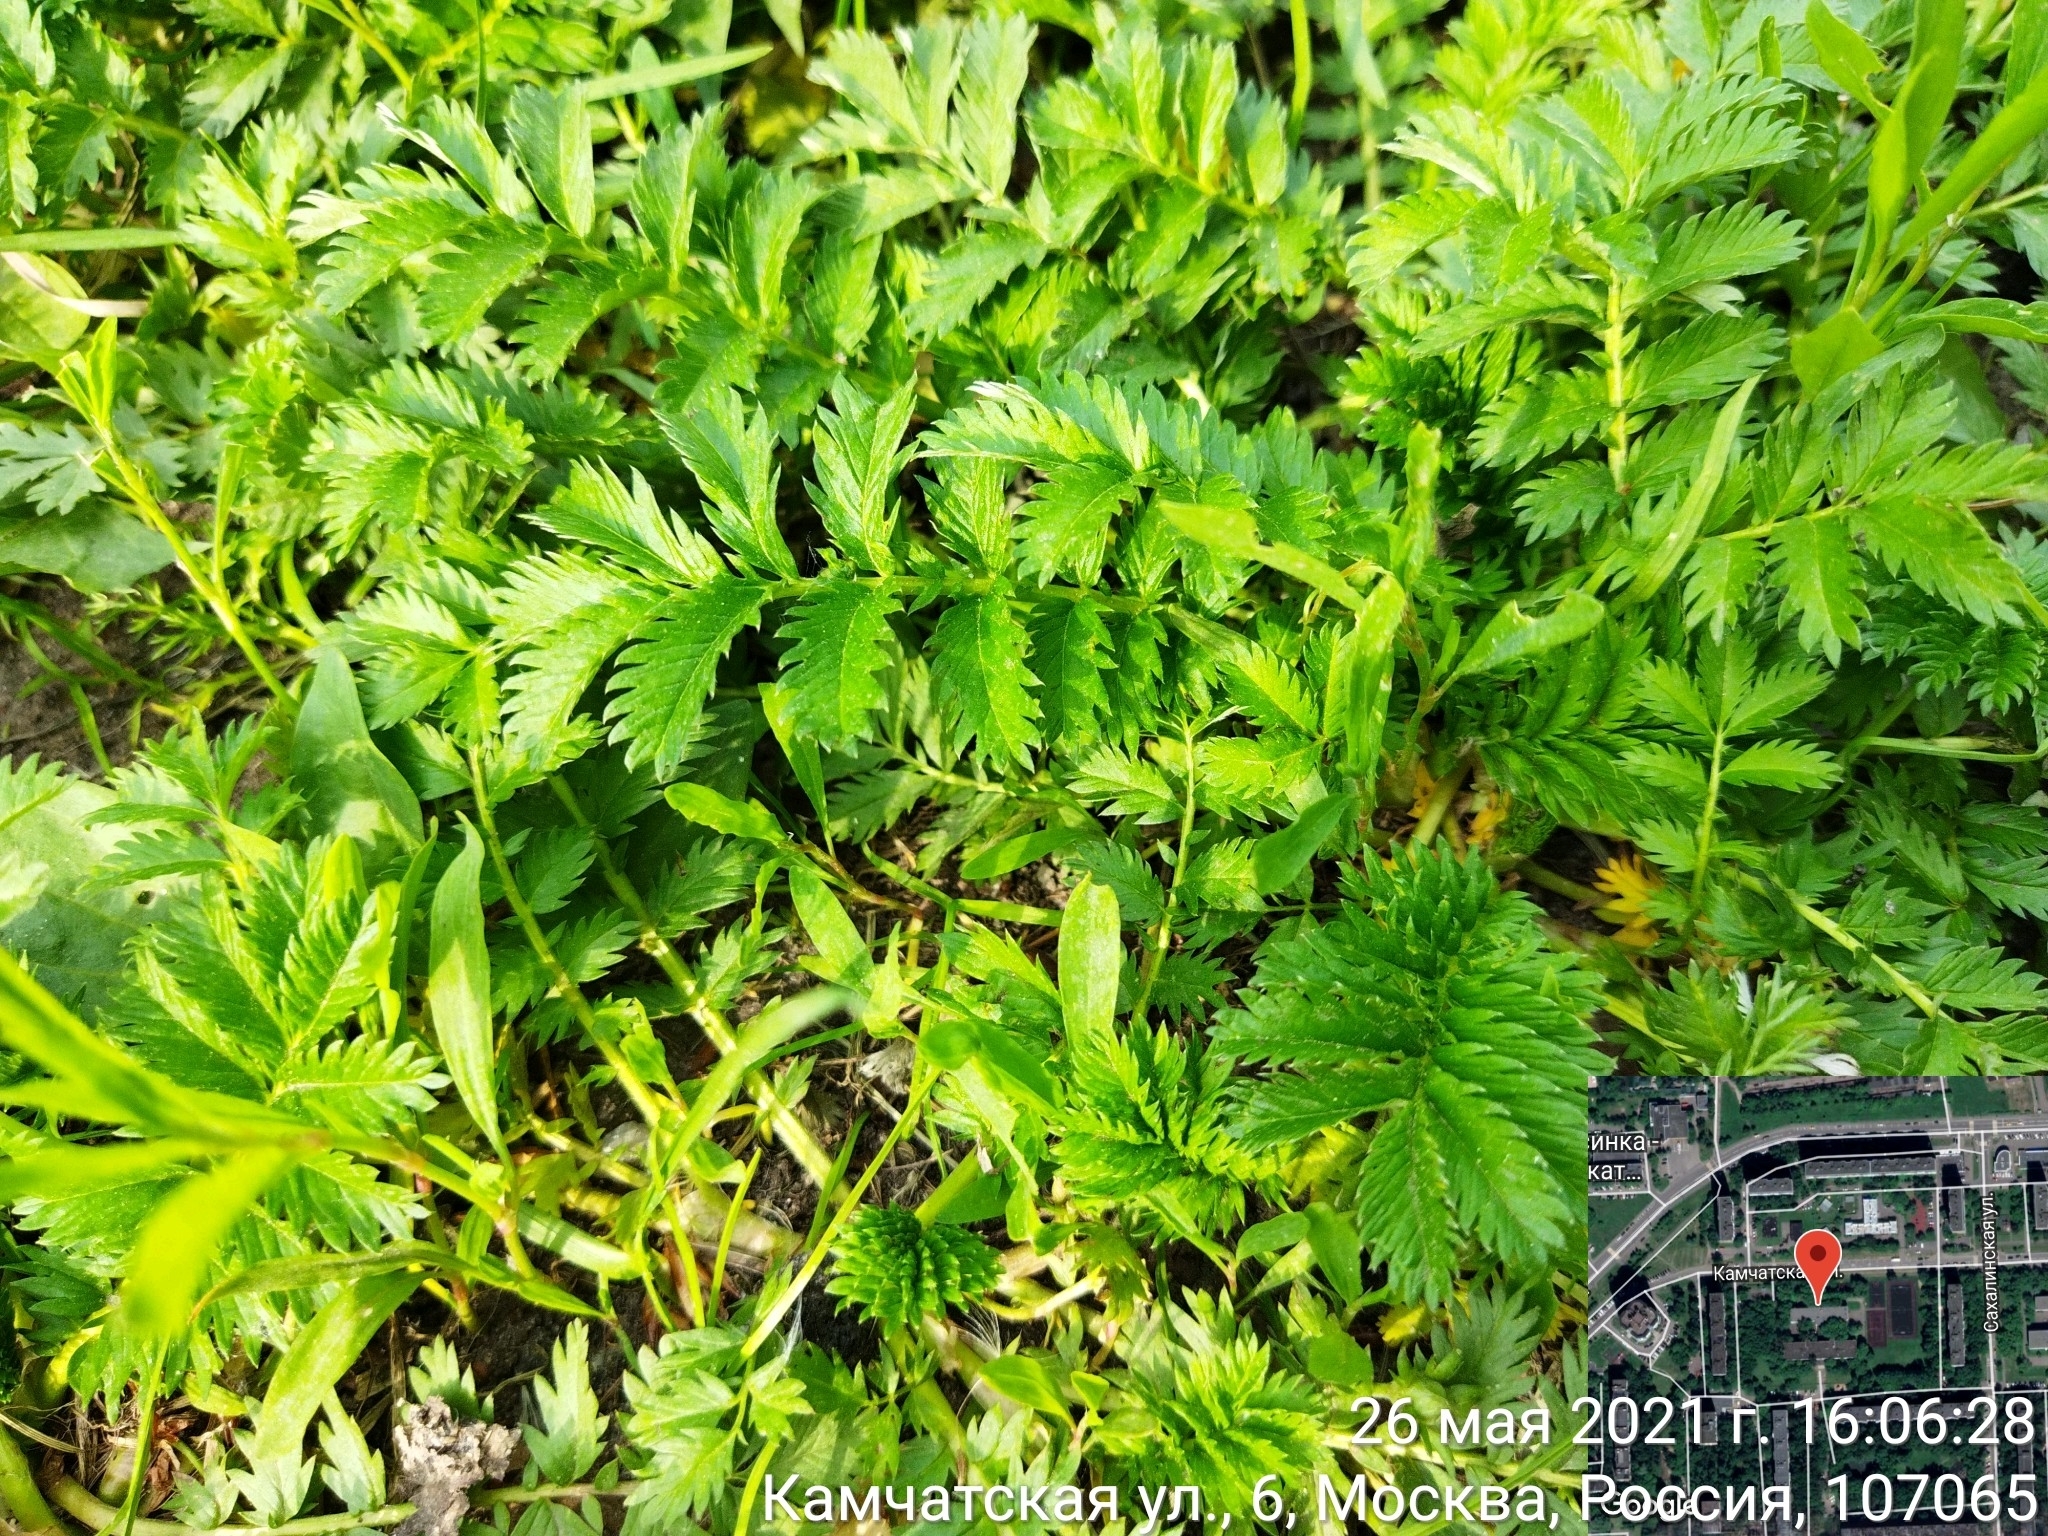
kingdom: Plantae
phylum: Tracheophyta
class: Magnoliopsida
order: Rosales
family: Rosaceae
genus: Argentina
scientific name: Argentina anserina
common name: Common silverweed
